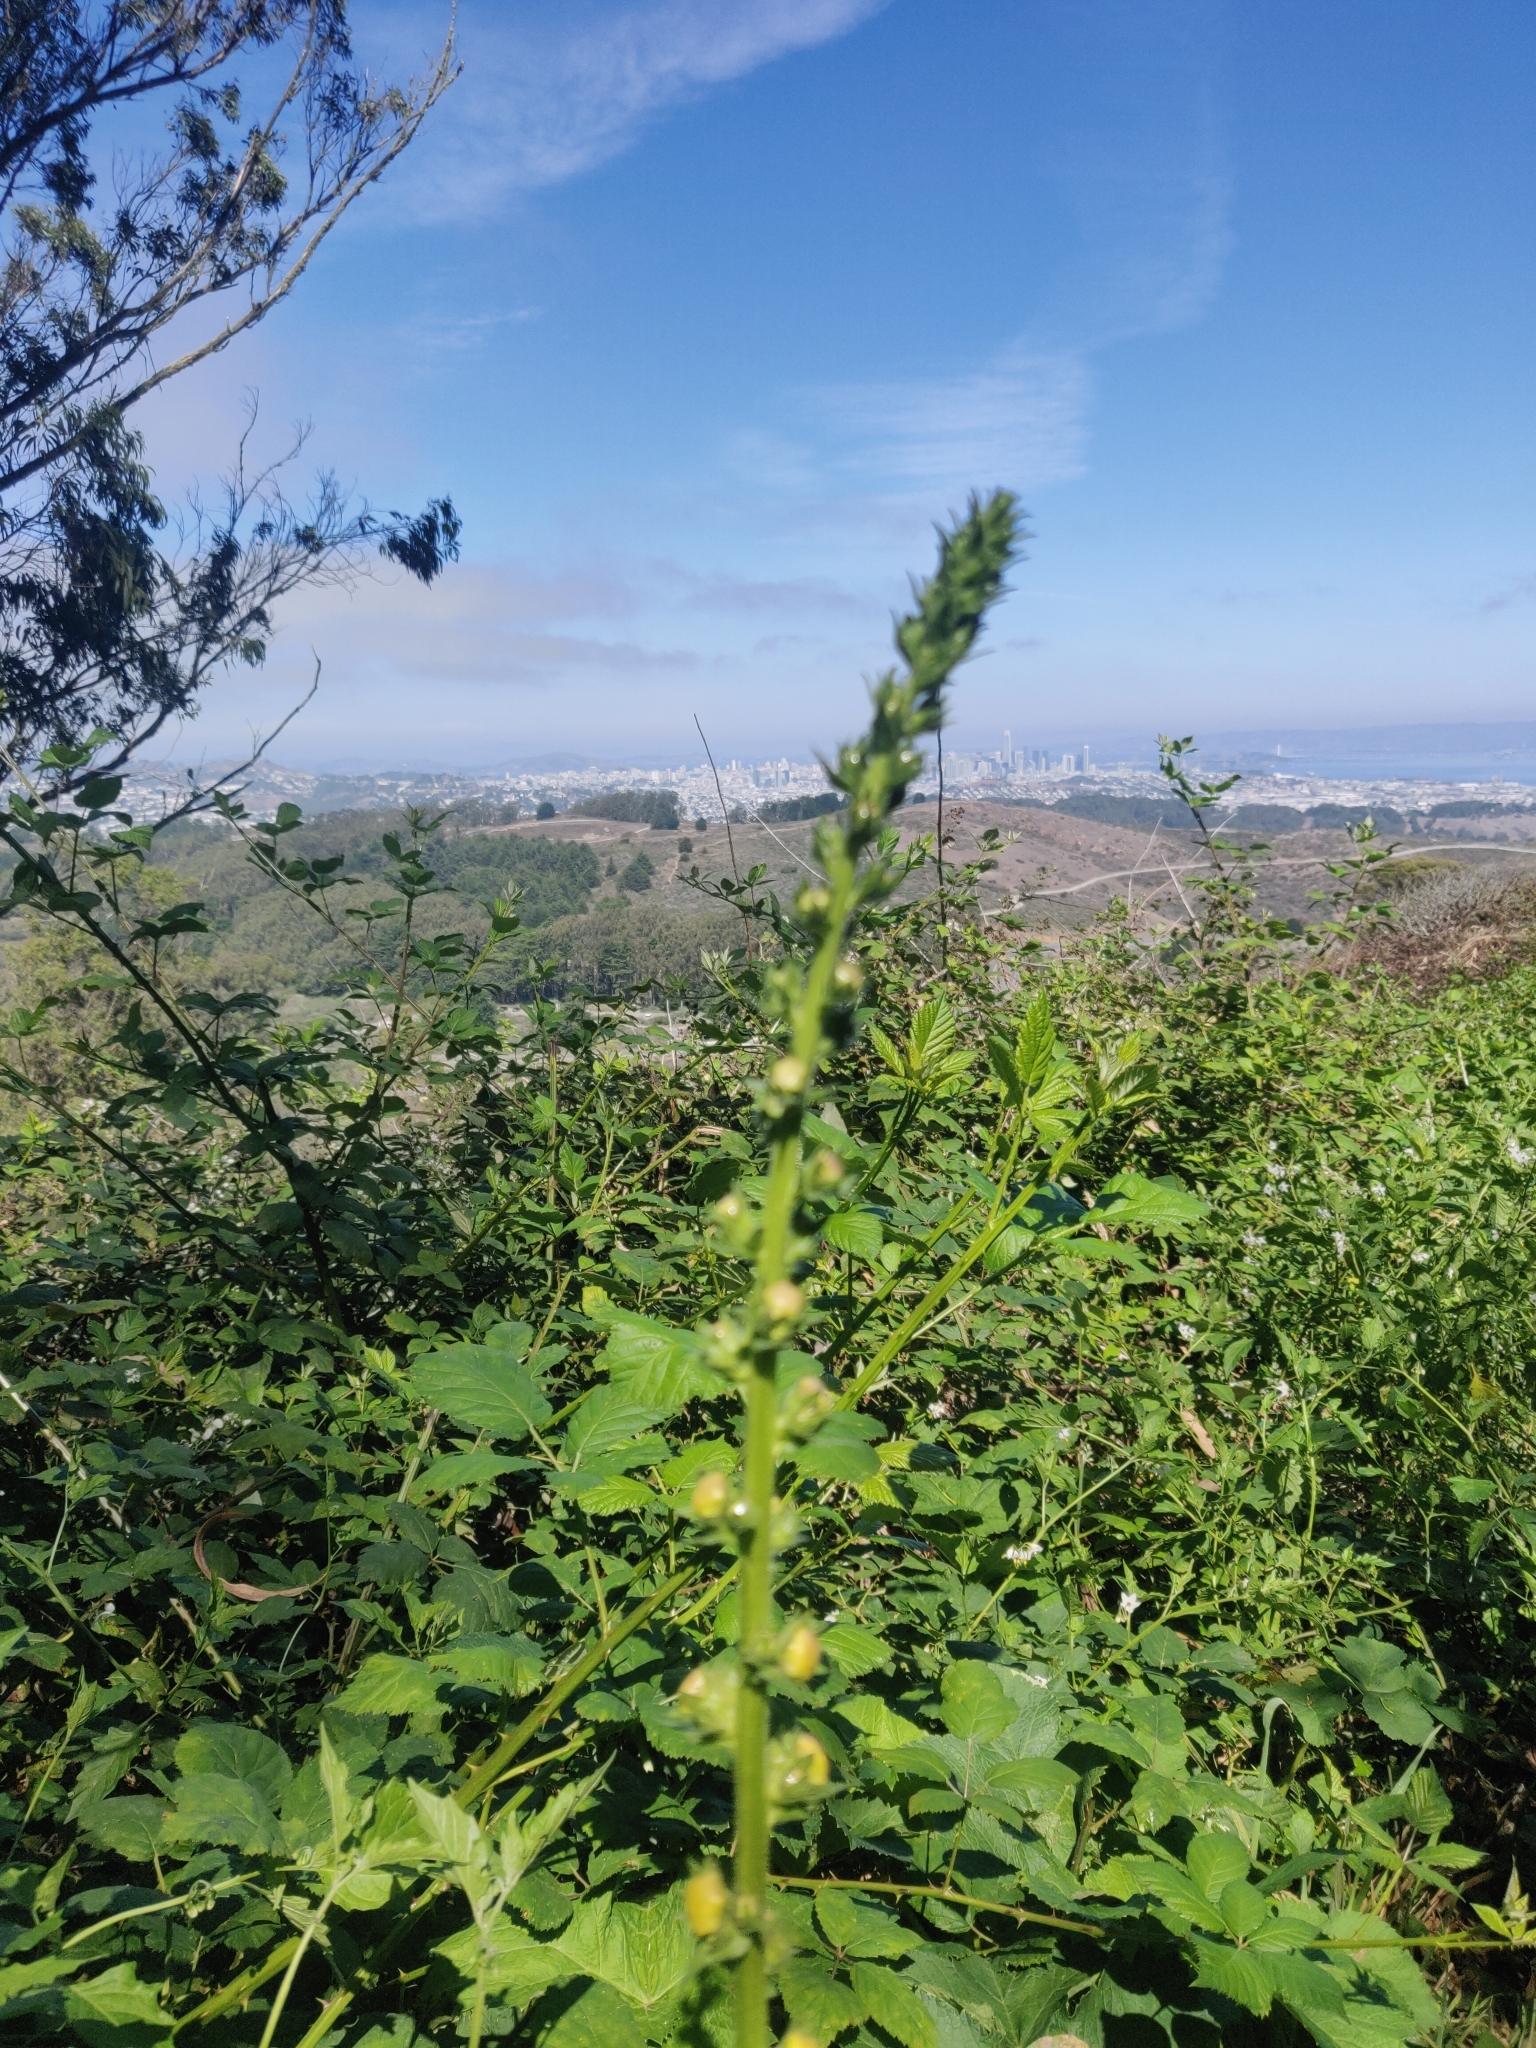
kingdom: Plantae
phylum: Tracheophyta
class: Magnoliopsida
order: Lamiales
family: Scrophulariaceae
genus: Verbascum
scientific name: Verbascum virgatum
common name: Twiggy mullein
